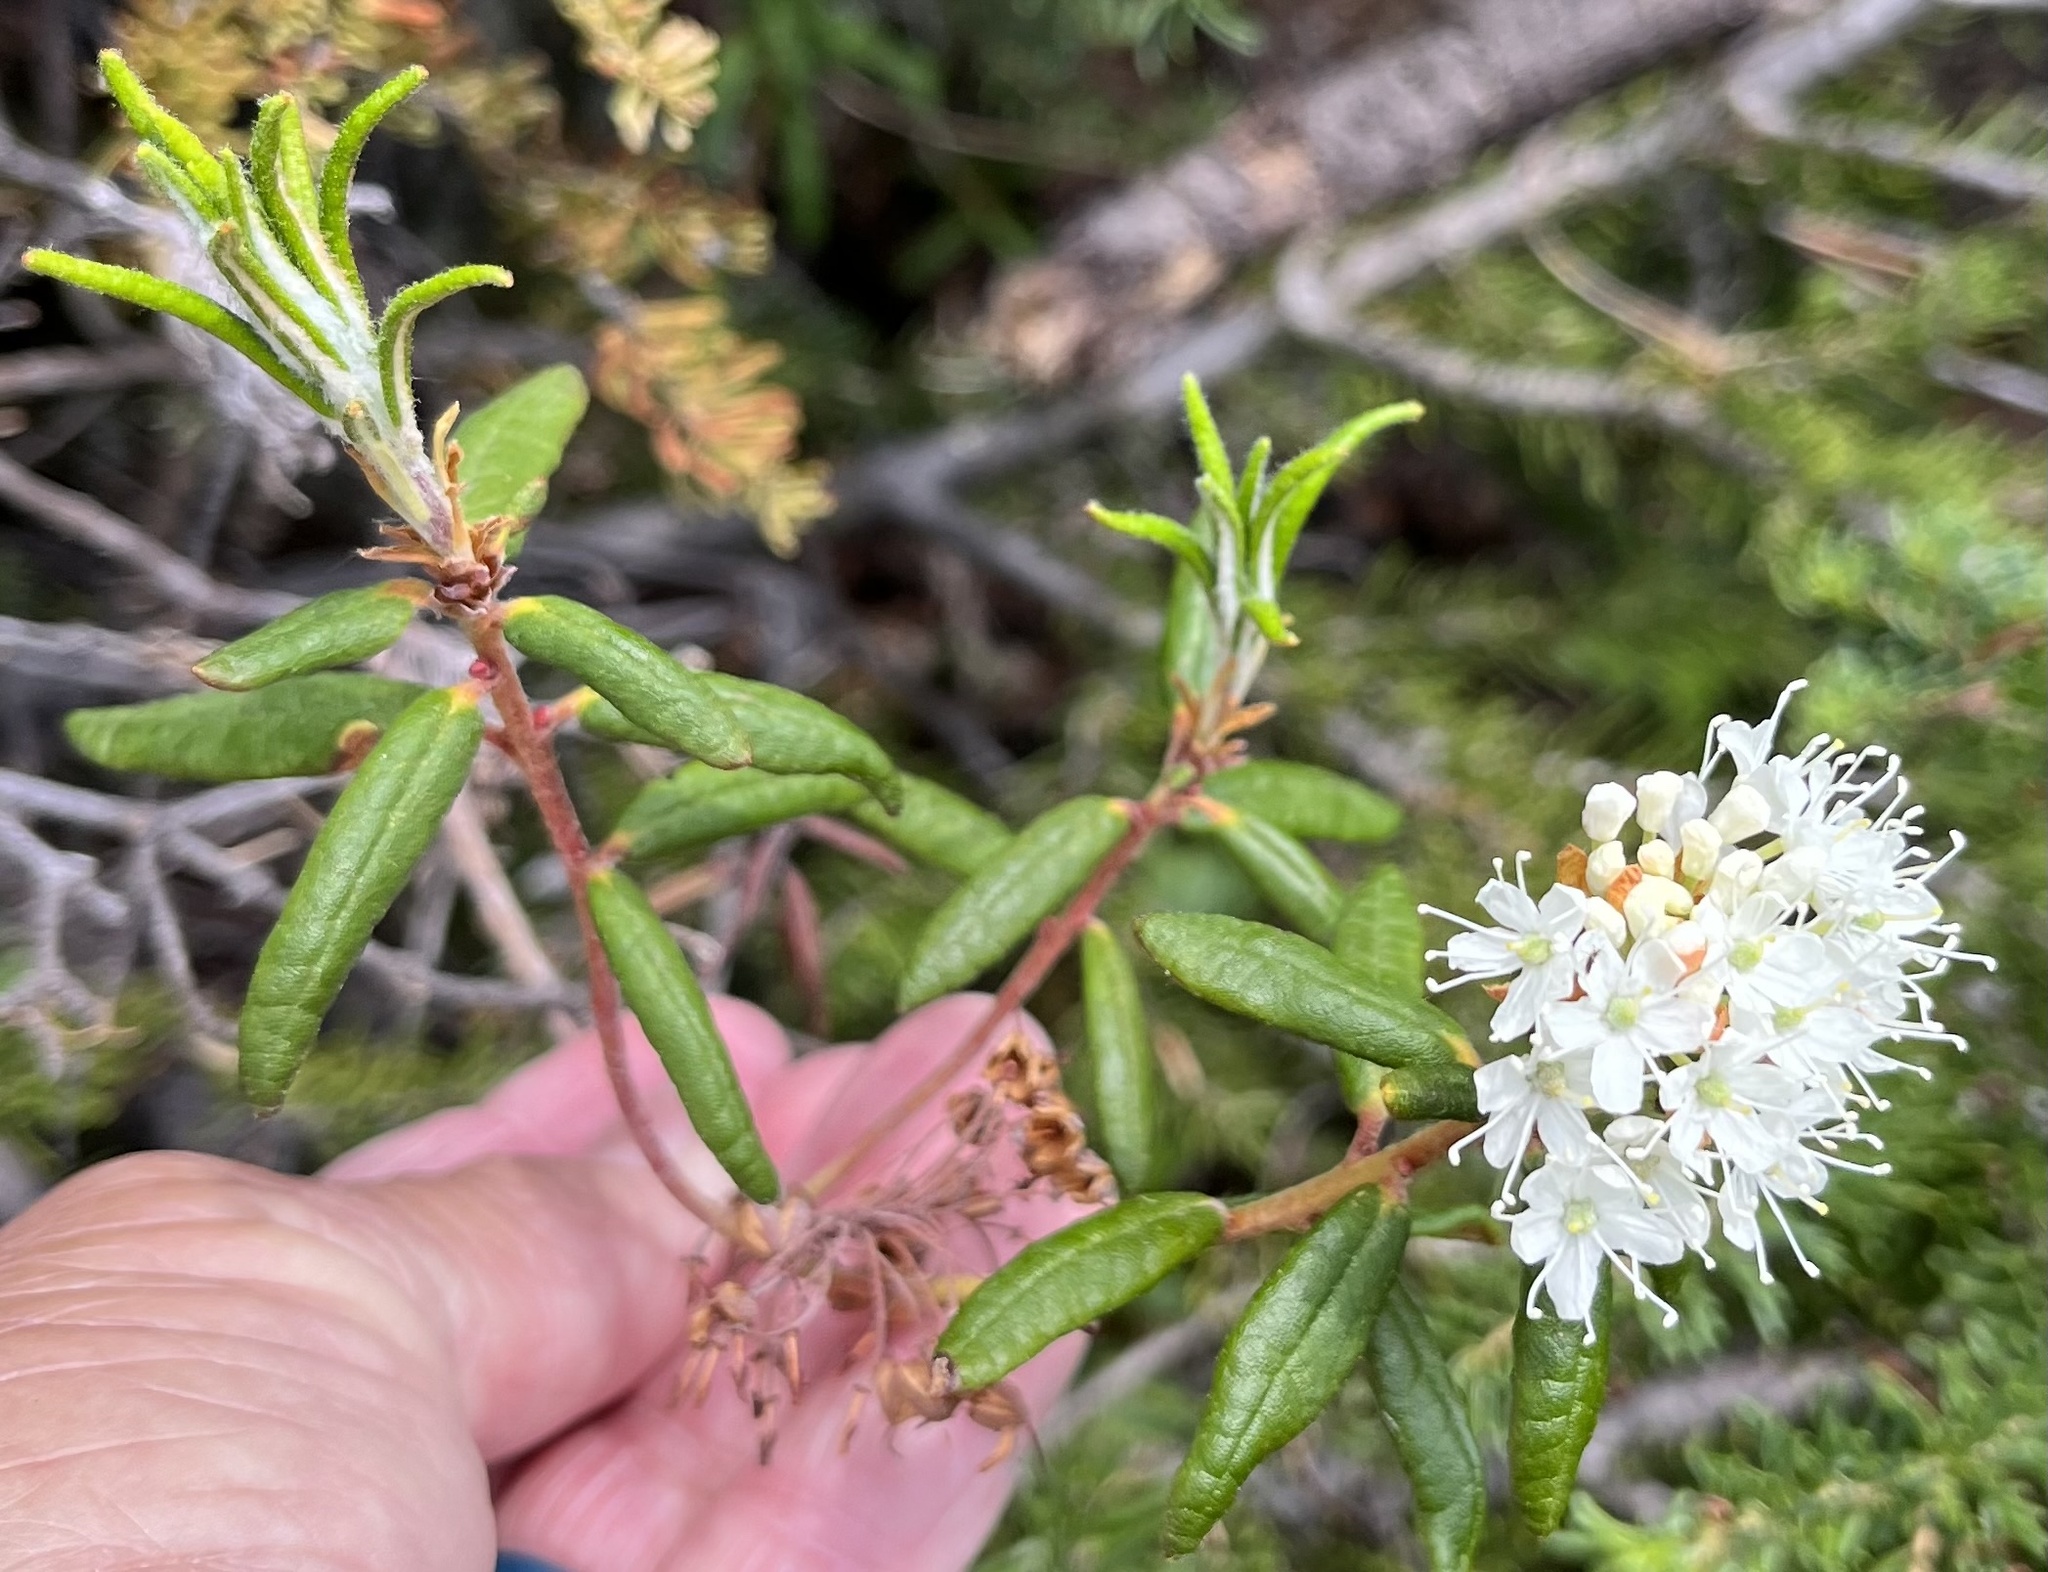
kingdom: Plantae
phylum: Tracheophyta
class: Magnoliopsida
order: Ericales
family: Ericaceae
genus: Rhododendron
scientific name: Rhododendron groenlandicum
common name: Bog labrador tea
